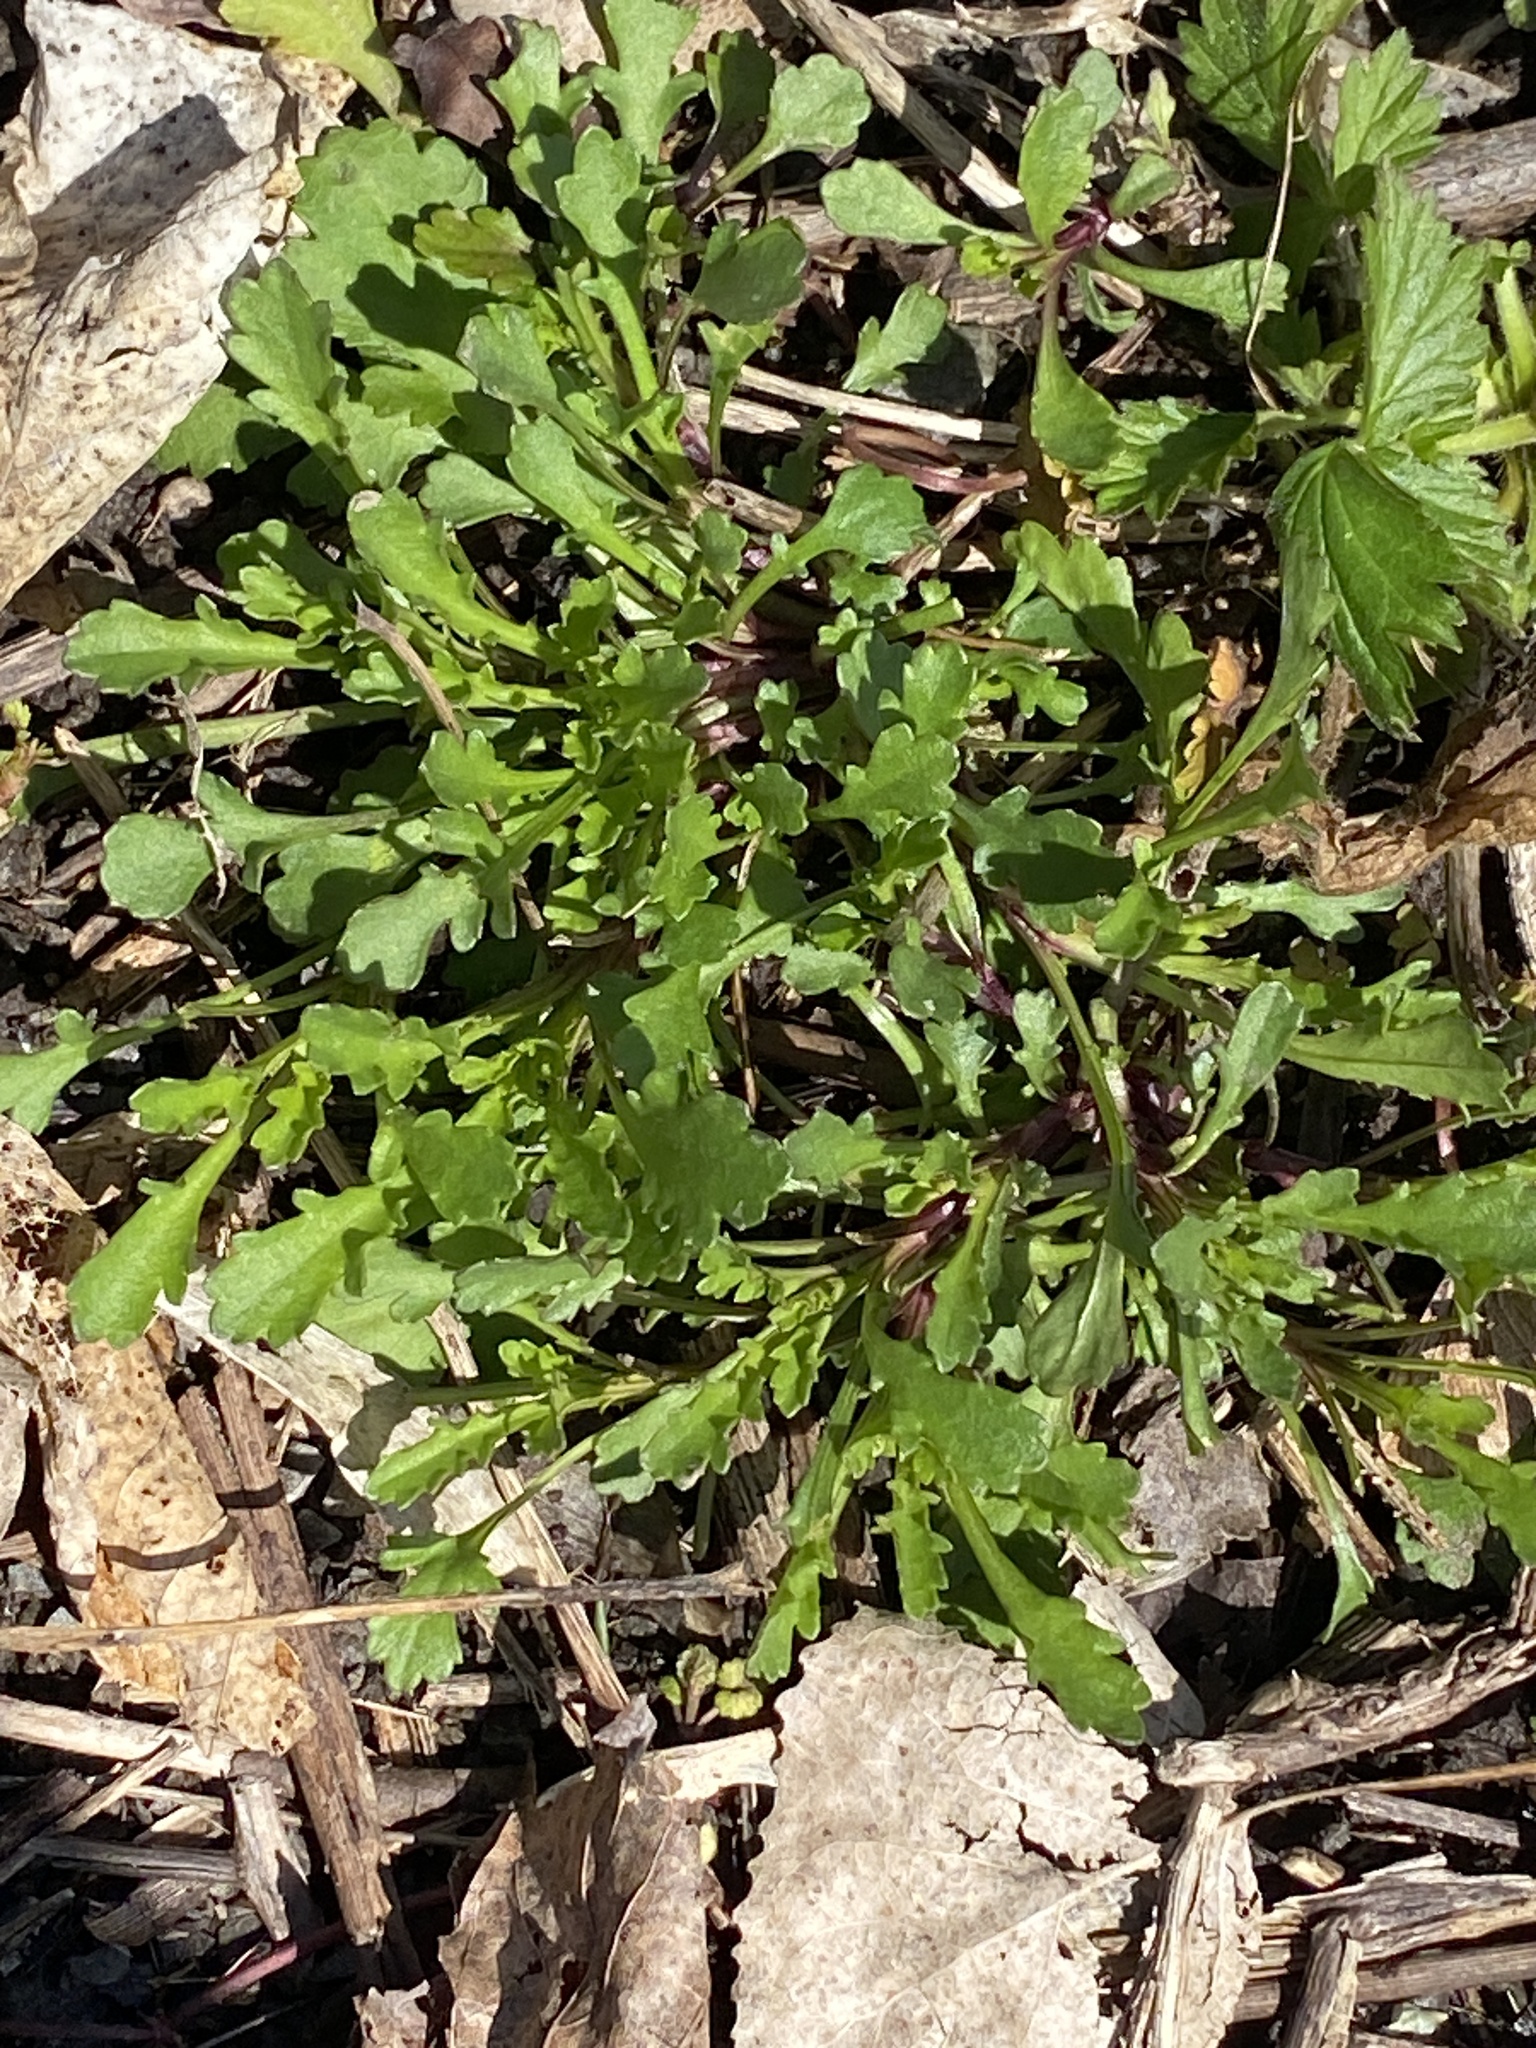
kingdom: Plantae
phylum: Tracheophyta
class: Magnoliopsida
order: Asterales
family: Asteraceae
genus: Leucanthemum
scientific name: Leucanthemum vulgare
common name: Oxeye daisy
